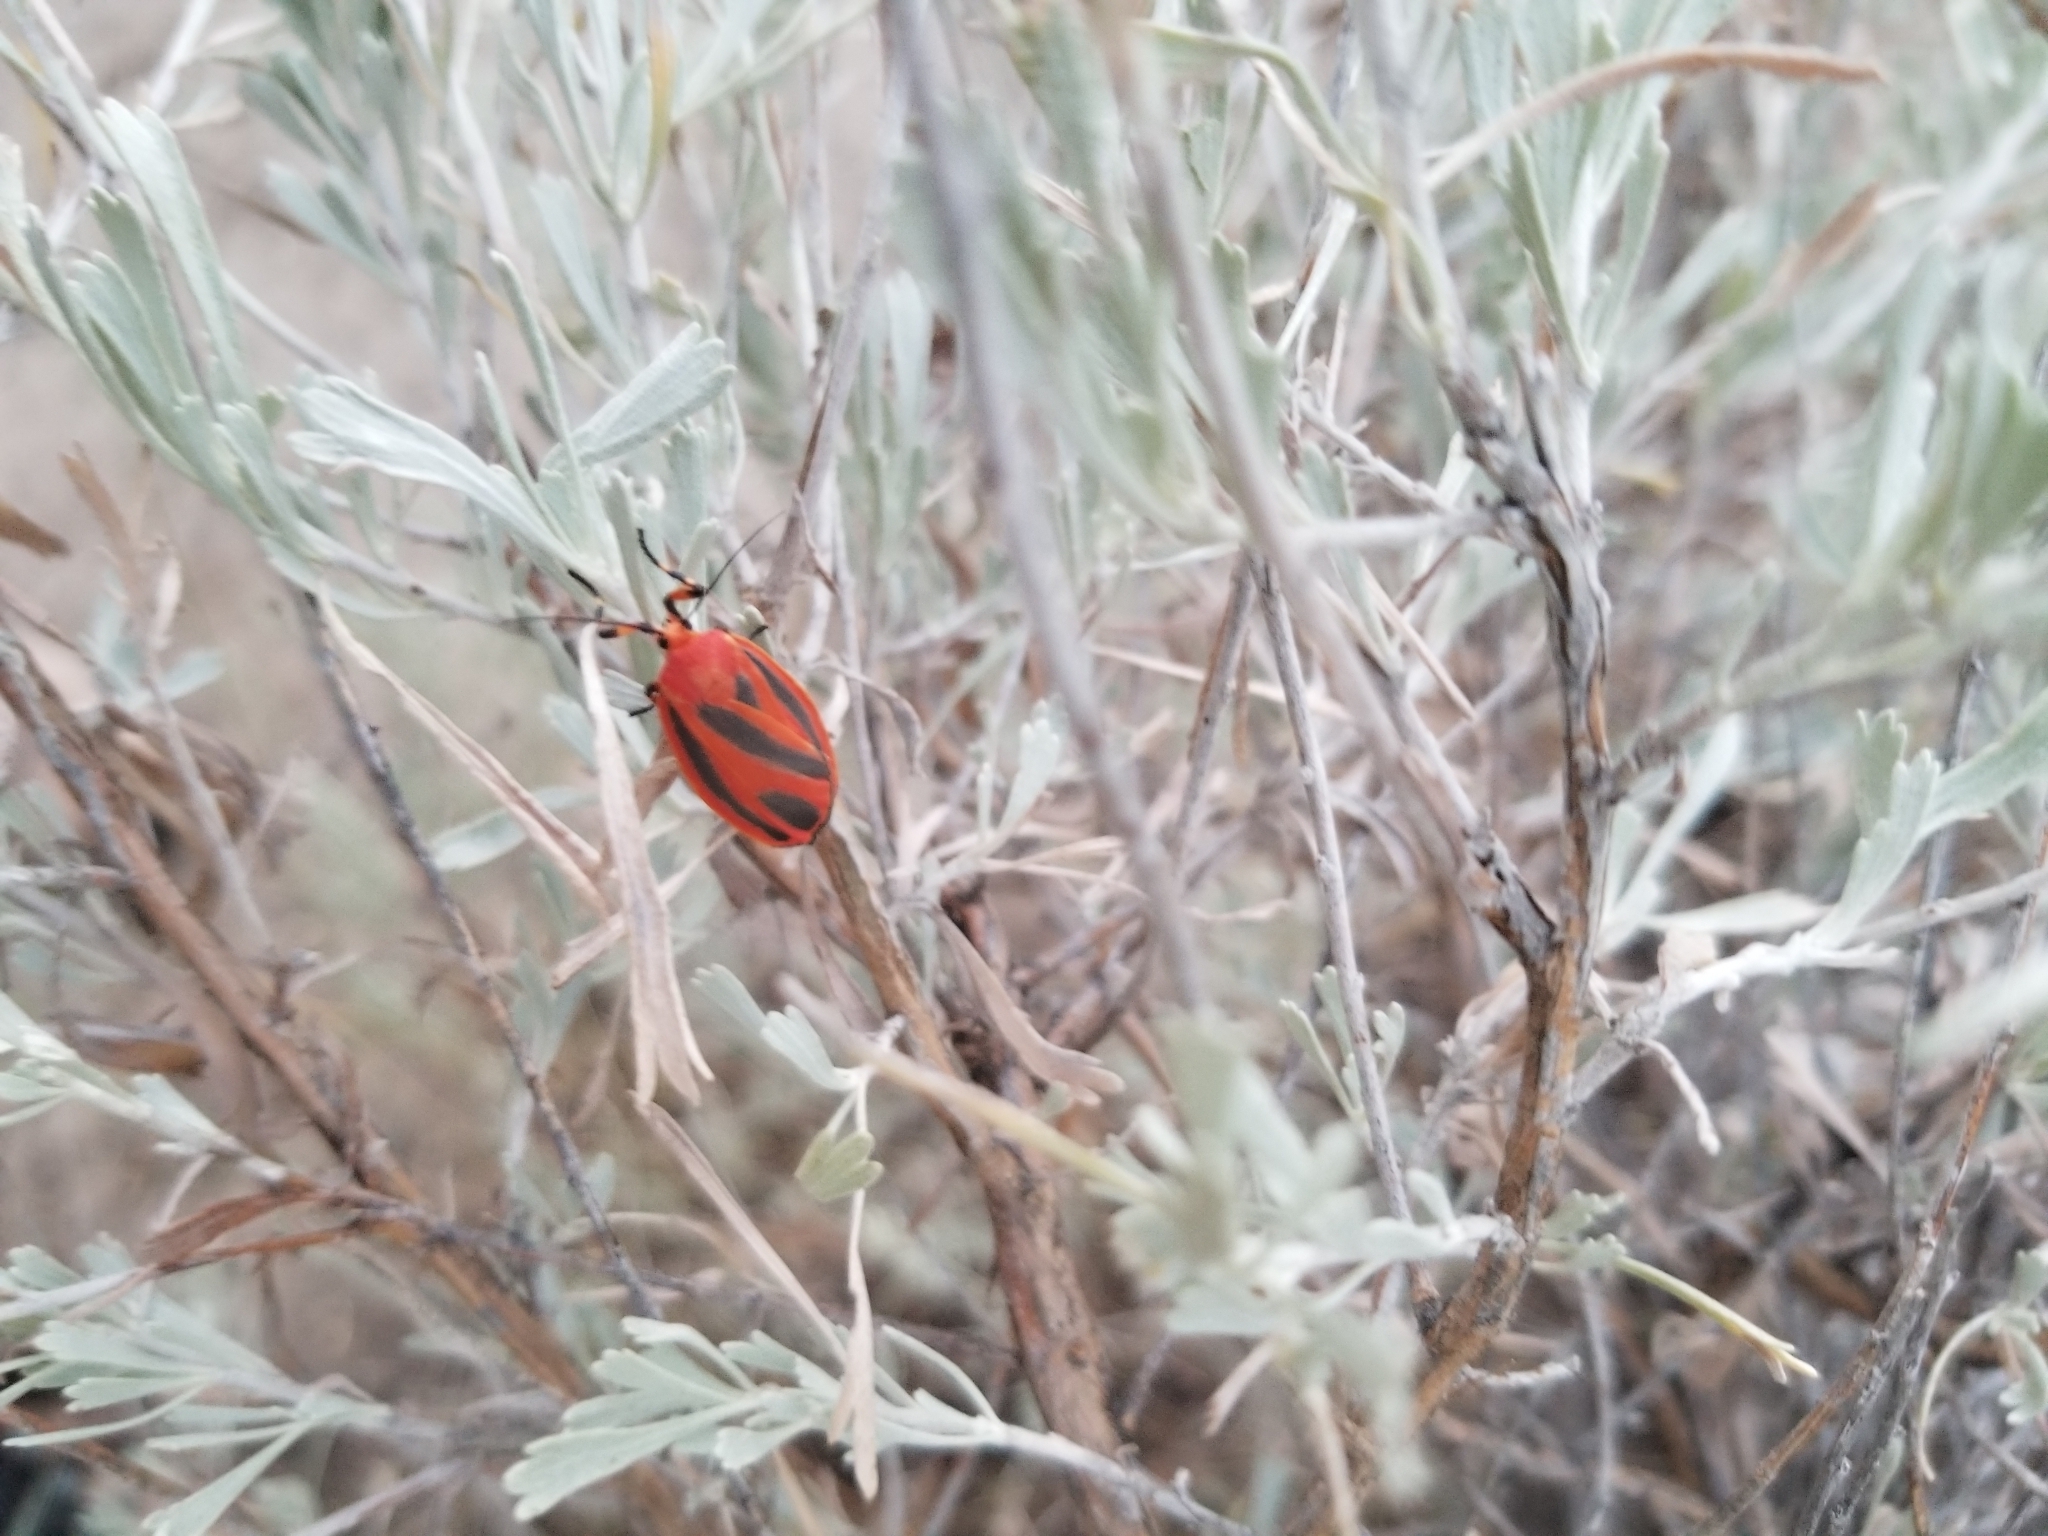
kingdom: Animalia
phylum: Arthropoda
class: Insecta
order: Lepidoptera
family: Erebidae
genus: Hypoprepia
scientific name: Hypoprepia miniata
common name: Scarlet-winged lichen moth
